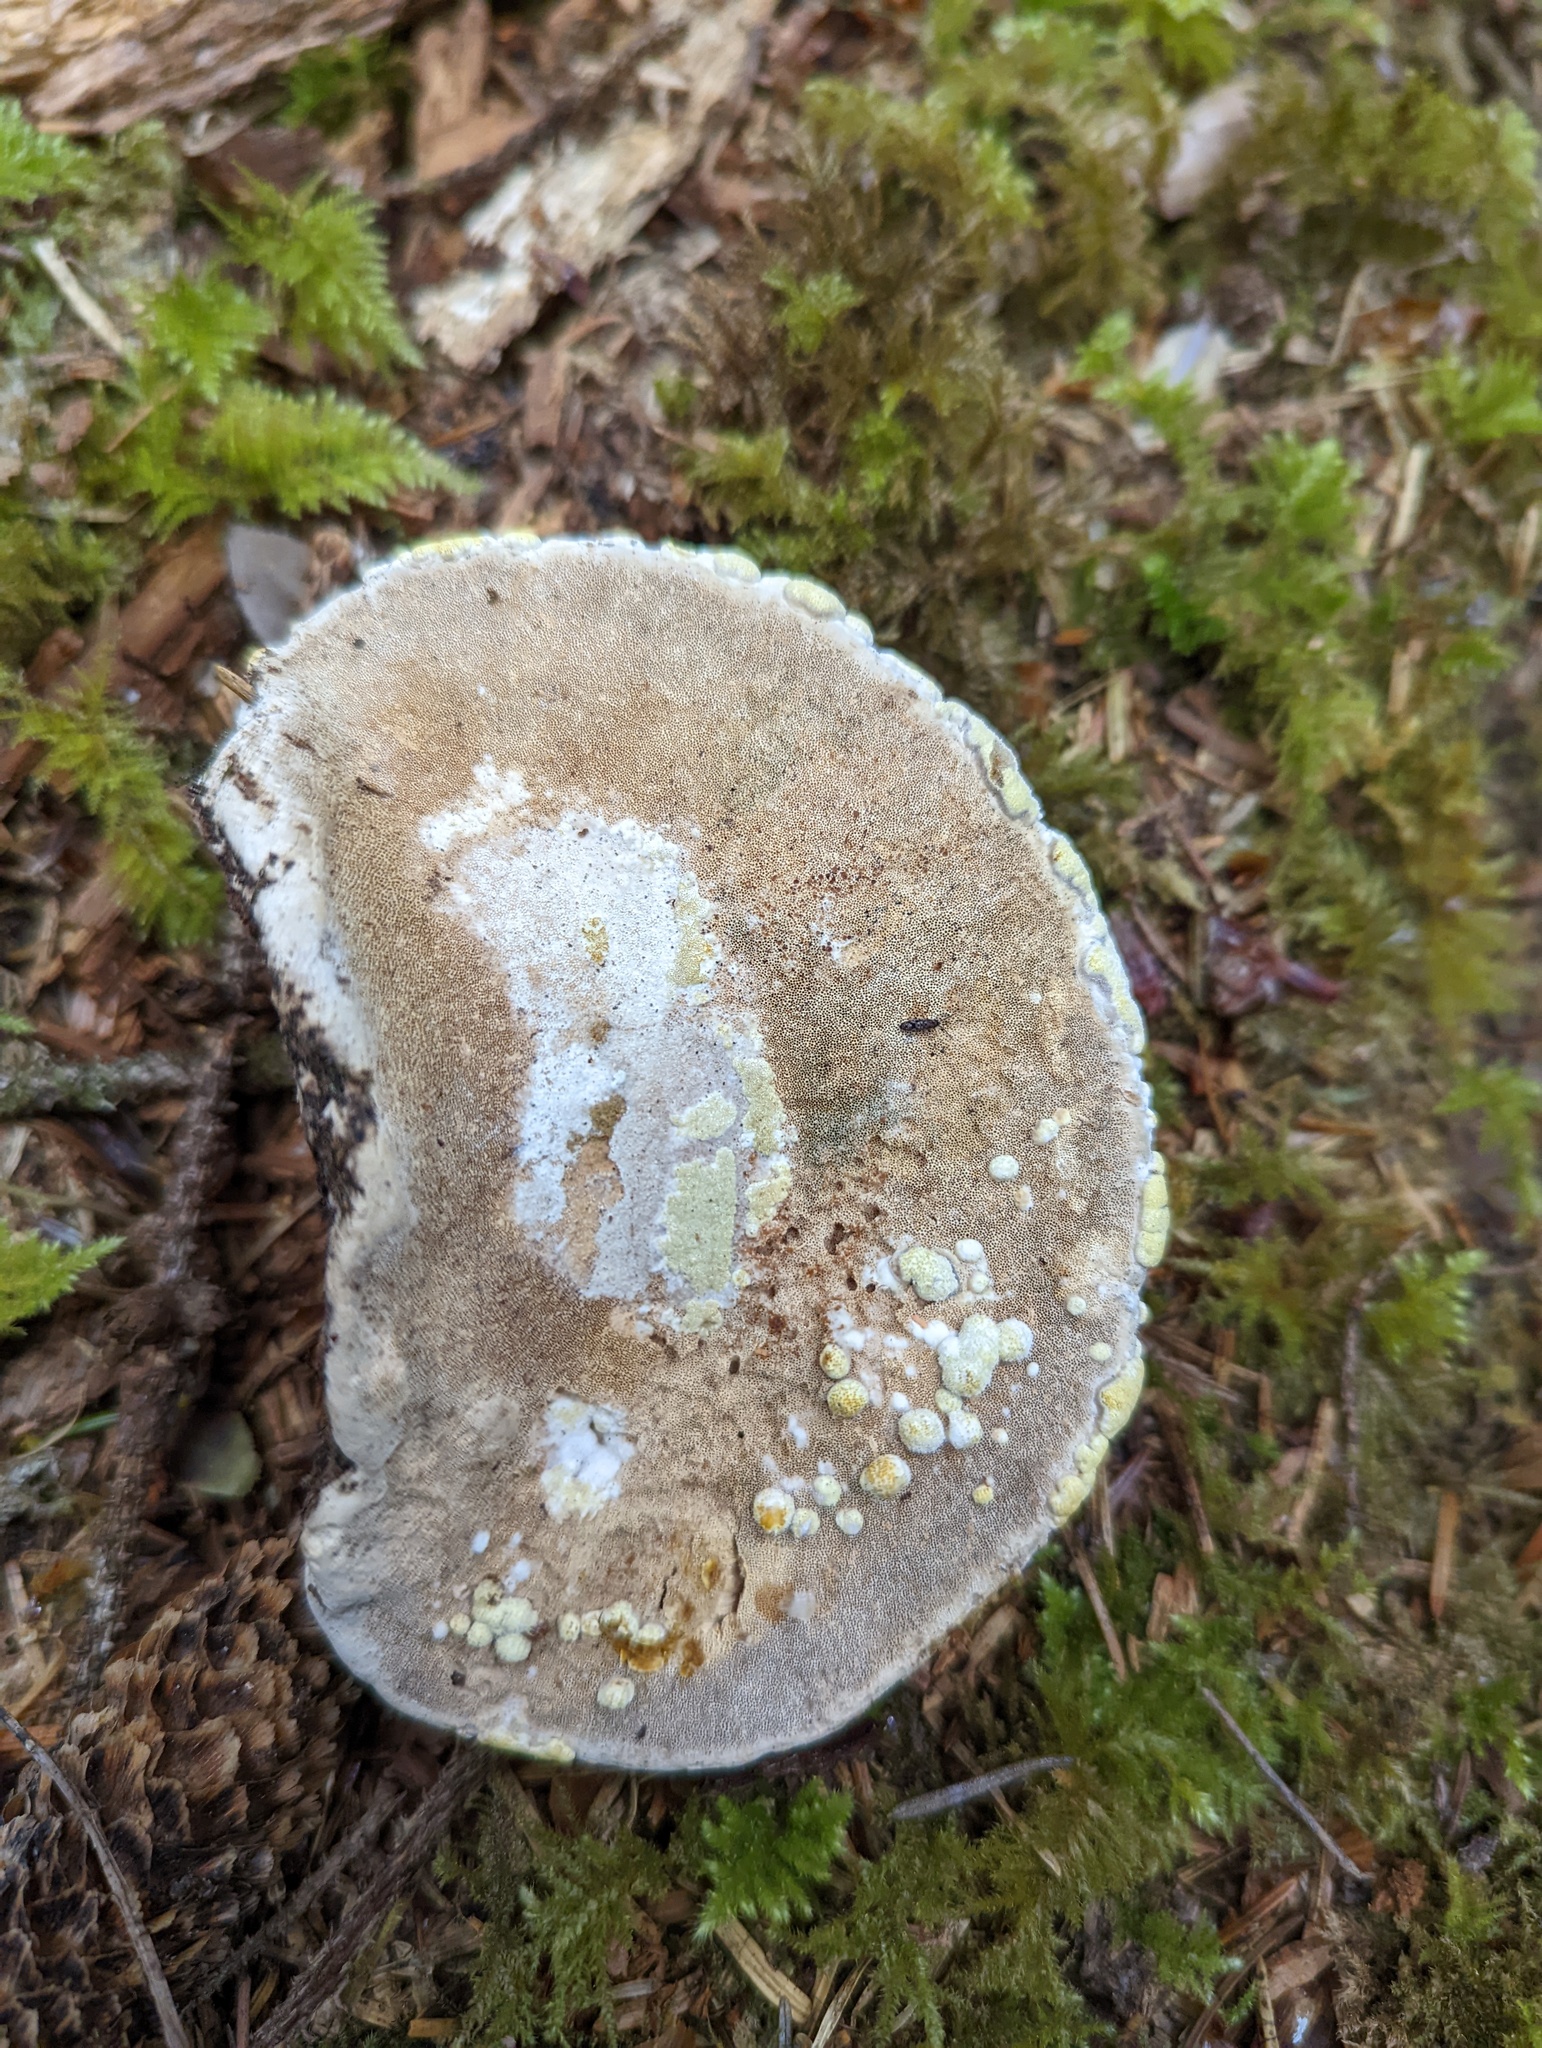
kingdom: Fungi
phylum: Basidiomycota
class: Agaricomycetes
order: Polyporales
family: Fomitopsidaceae
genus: Fomitopsis
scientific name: Fomitopsis mounceae
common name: Northern red belt
